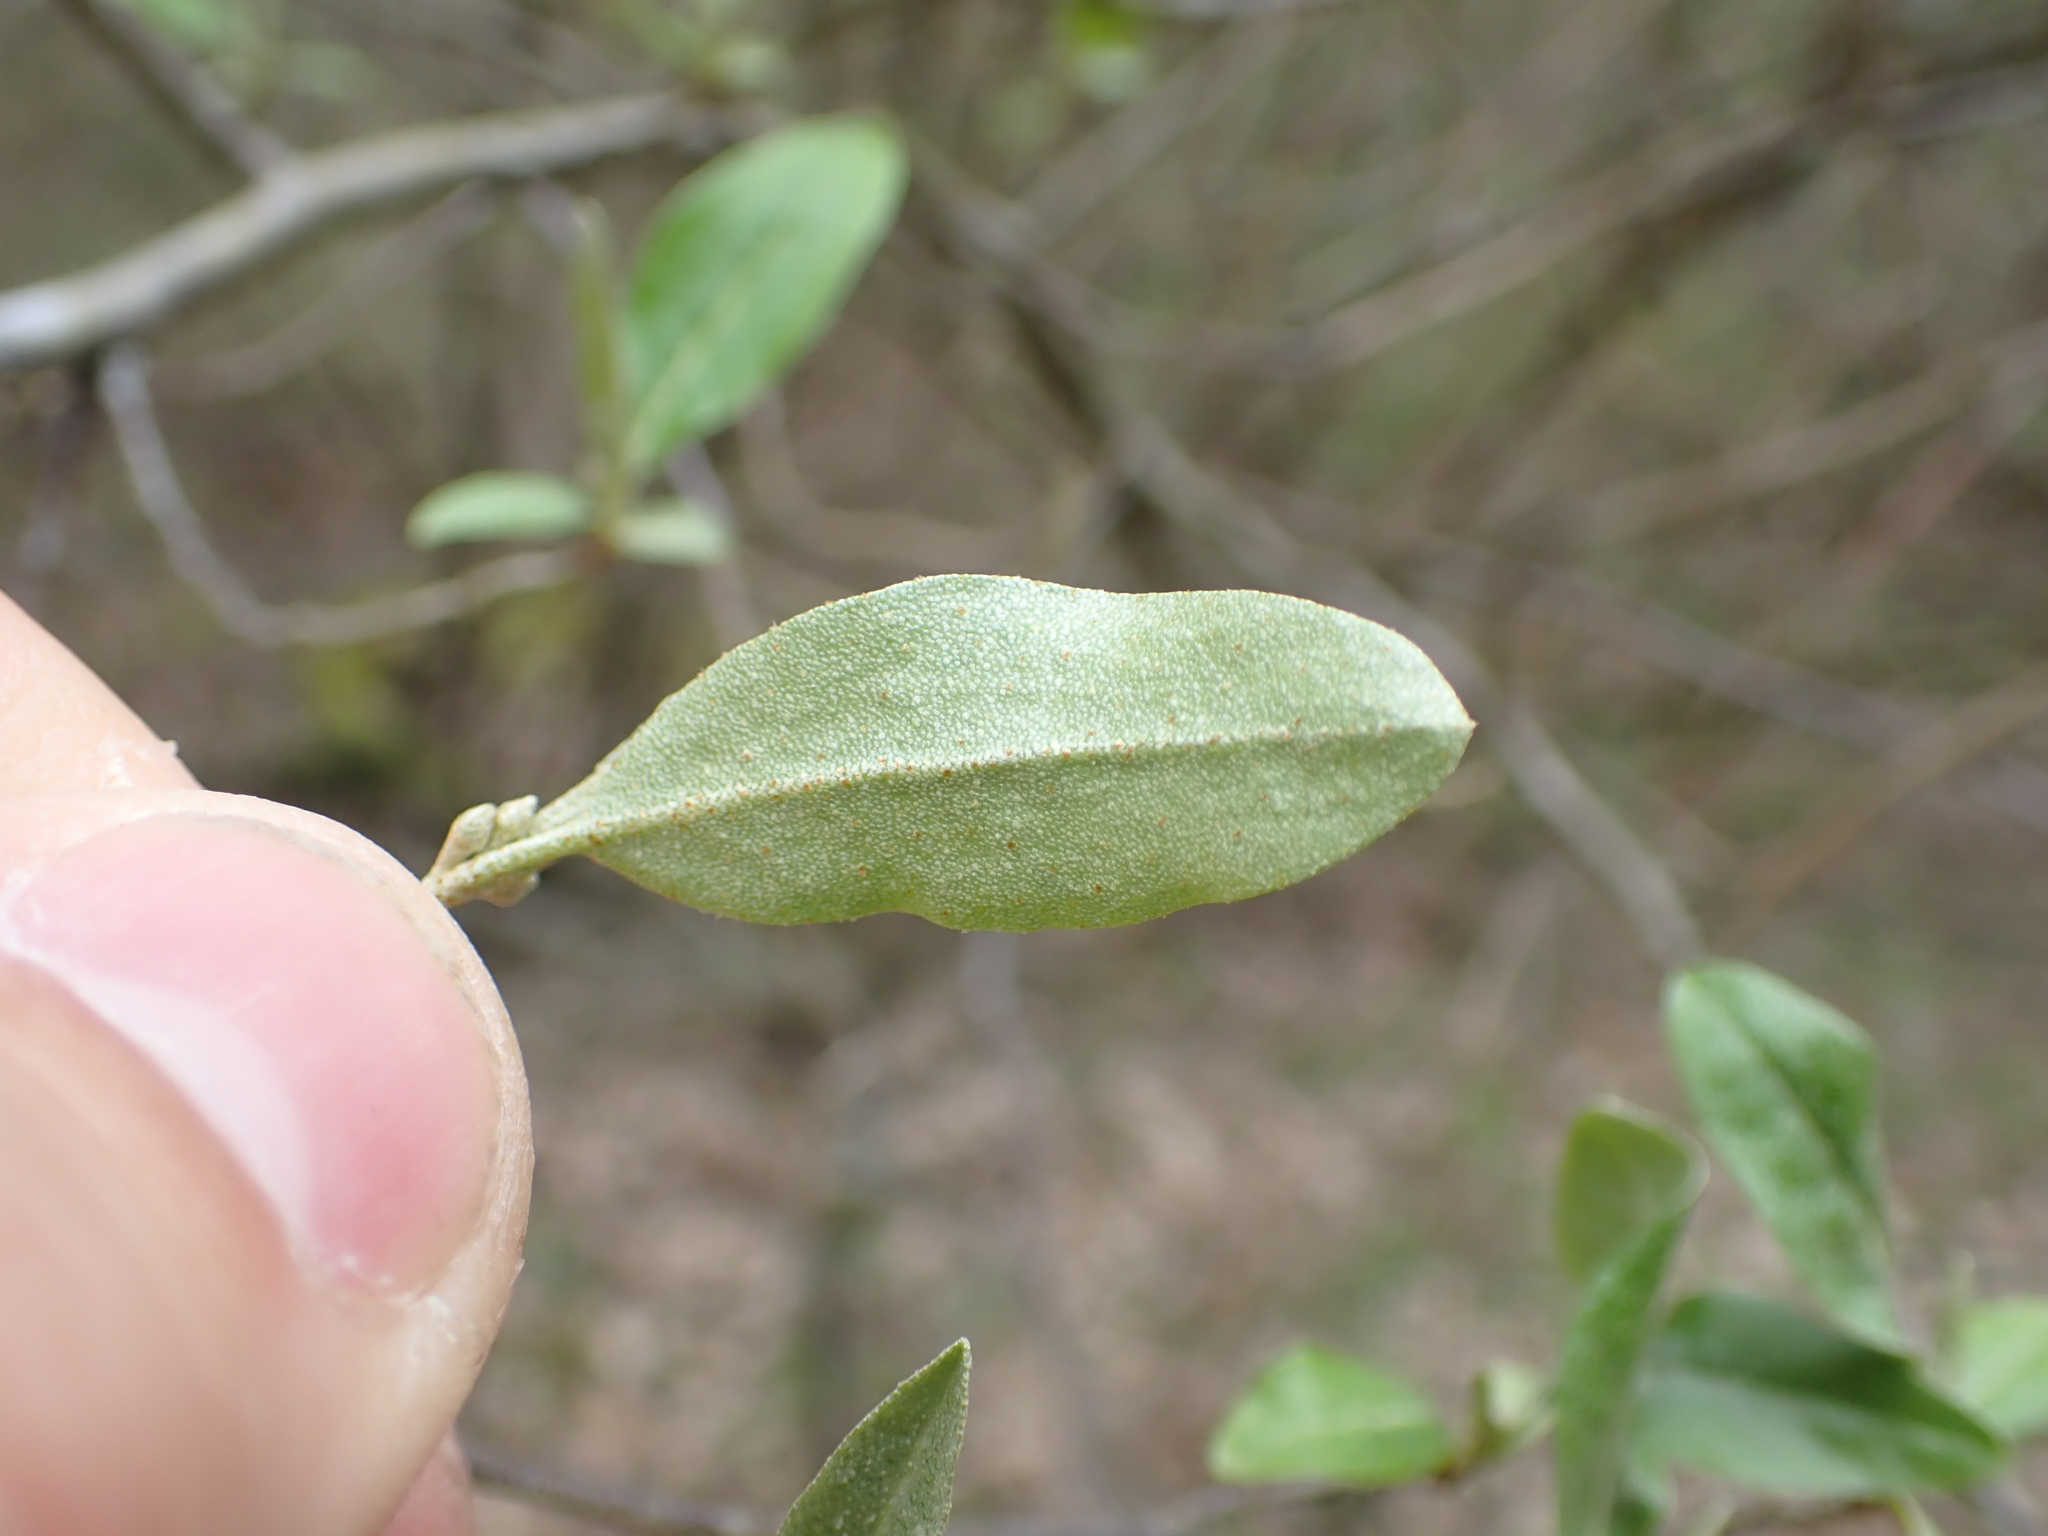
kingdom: Plantae
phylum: Tracheophyta
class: Magnoliopsida
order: Rosales
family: Elaeagnaceae
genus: Elaeagnus
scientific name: Elaeagnus umbellata
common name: Autumn olive
